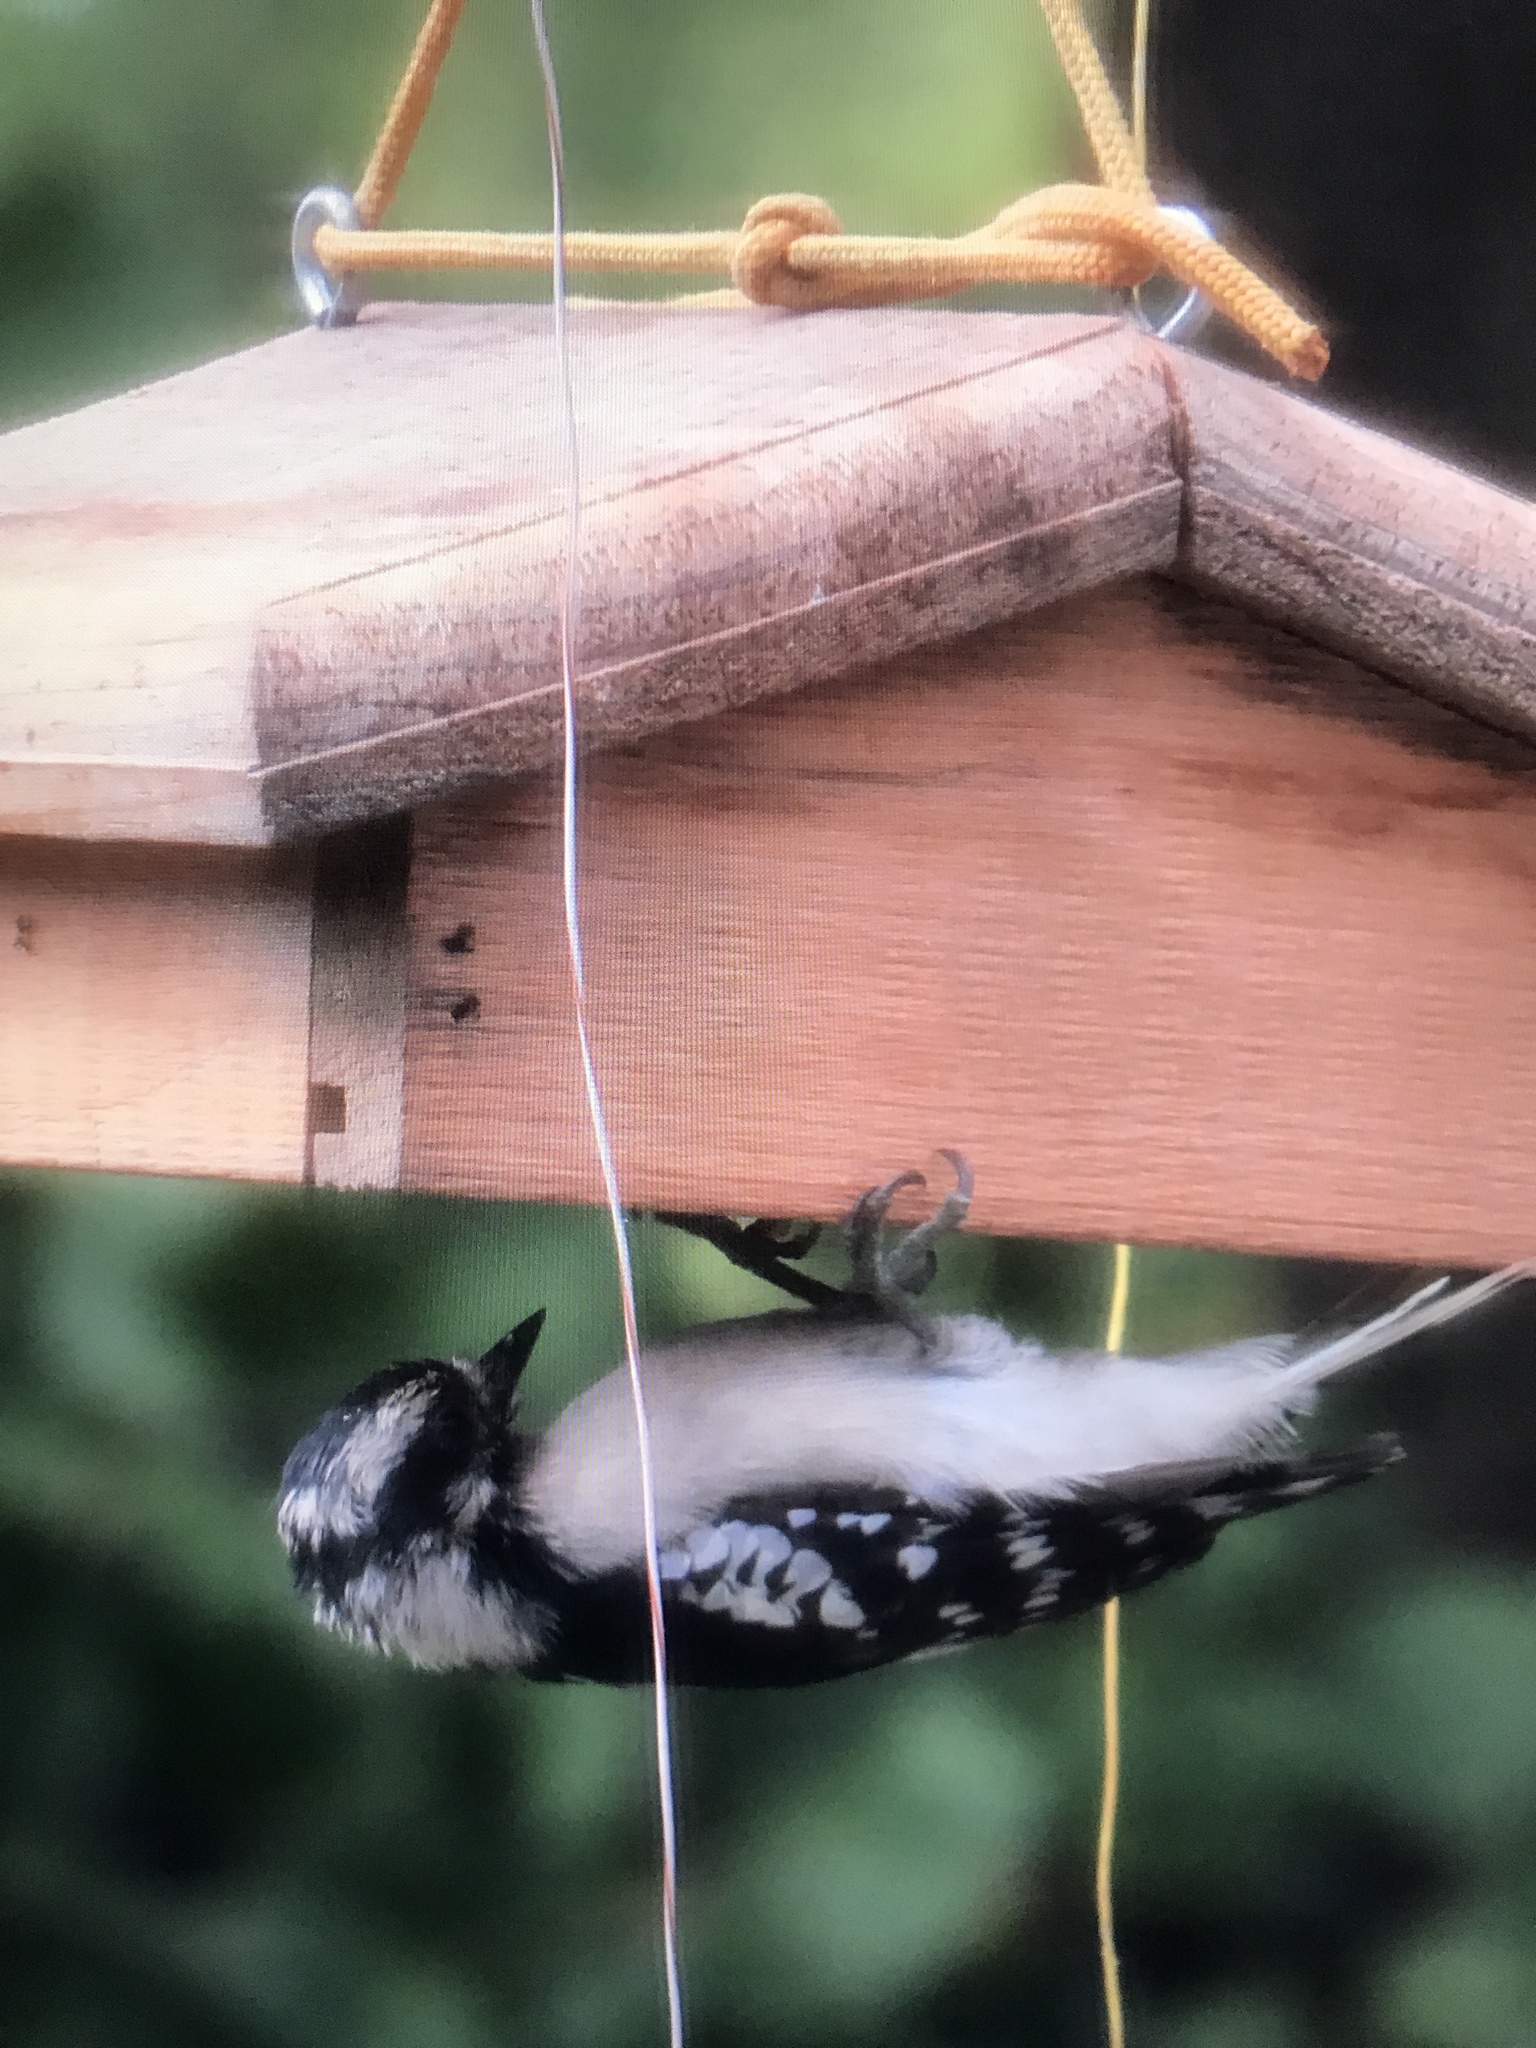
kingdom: Animalia
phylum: Chordata
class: Aves
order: Piciformes
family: Picidae
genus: Dryobates
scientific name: Dryobates pubescens
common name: Downy woodpecker
